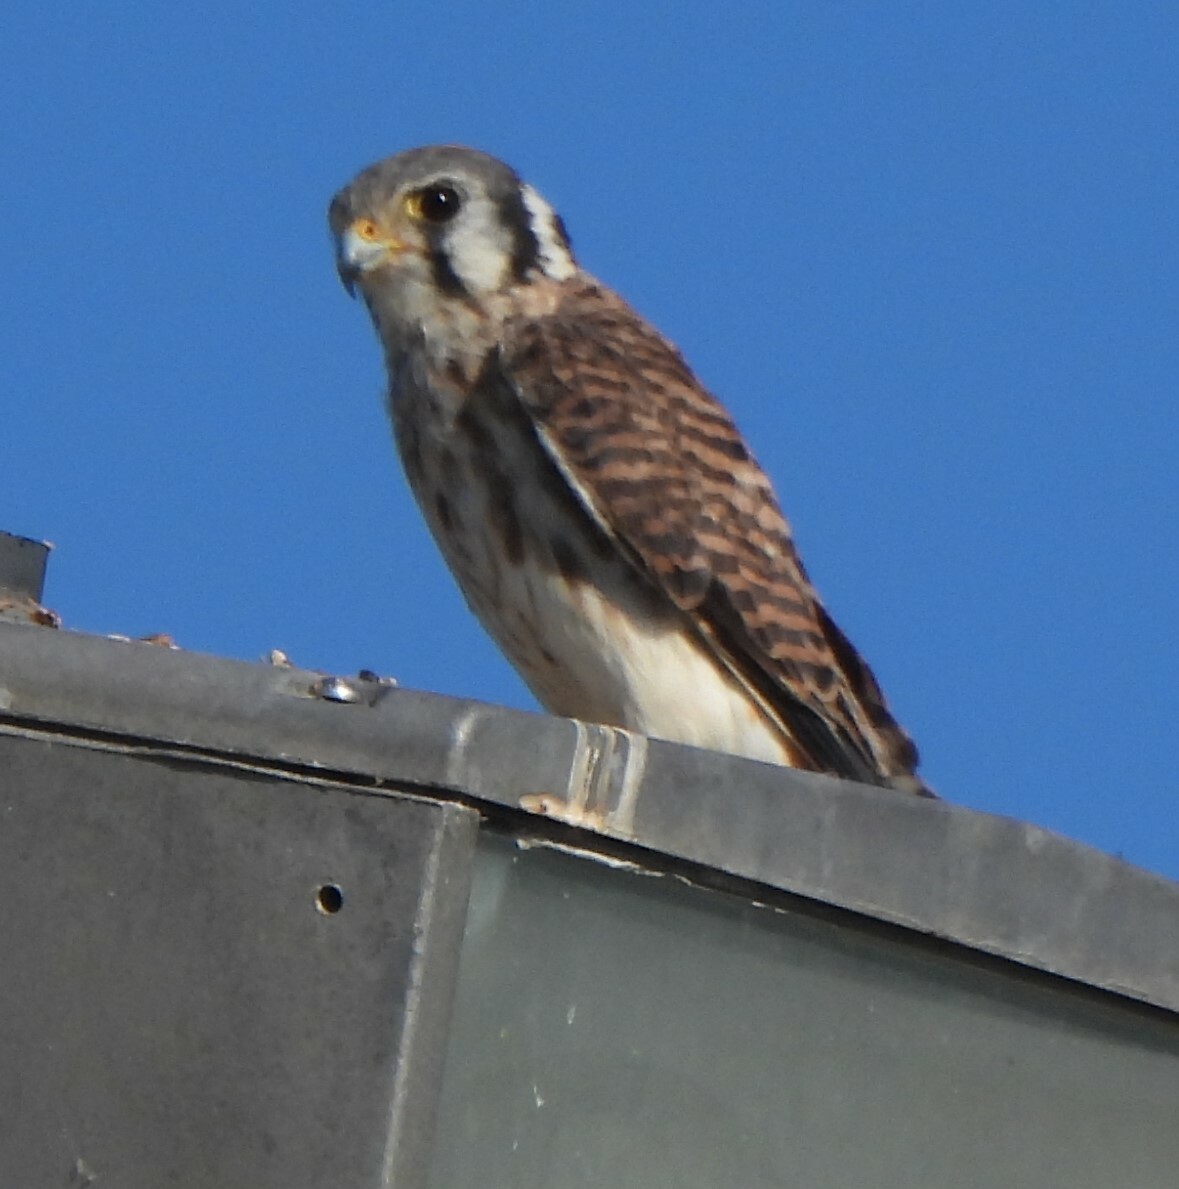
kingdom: Animalia
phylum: Chordata
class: Aves
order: Falconiformes
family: Falconidae
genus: Falco
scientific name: Falco sparverius
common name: American kestrel
